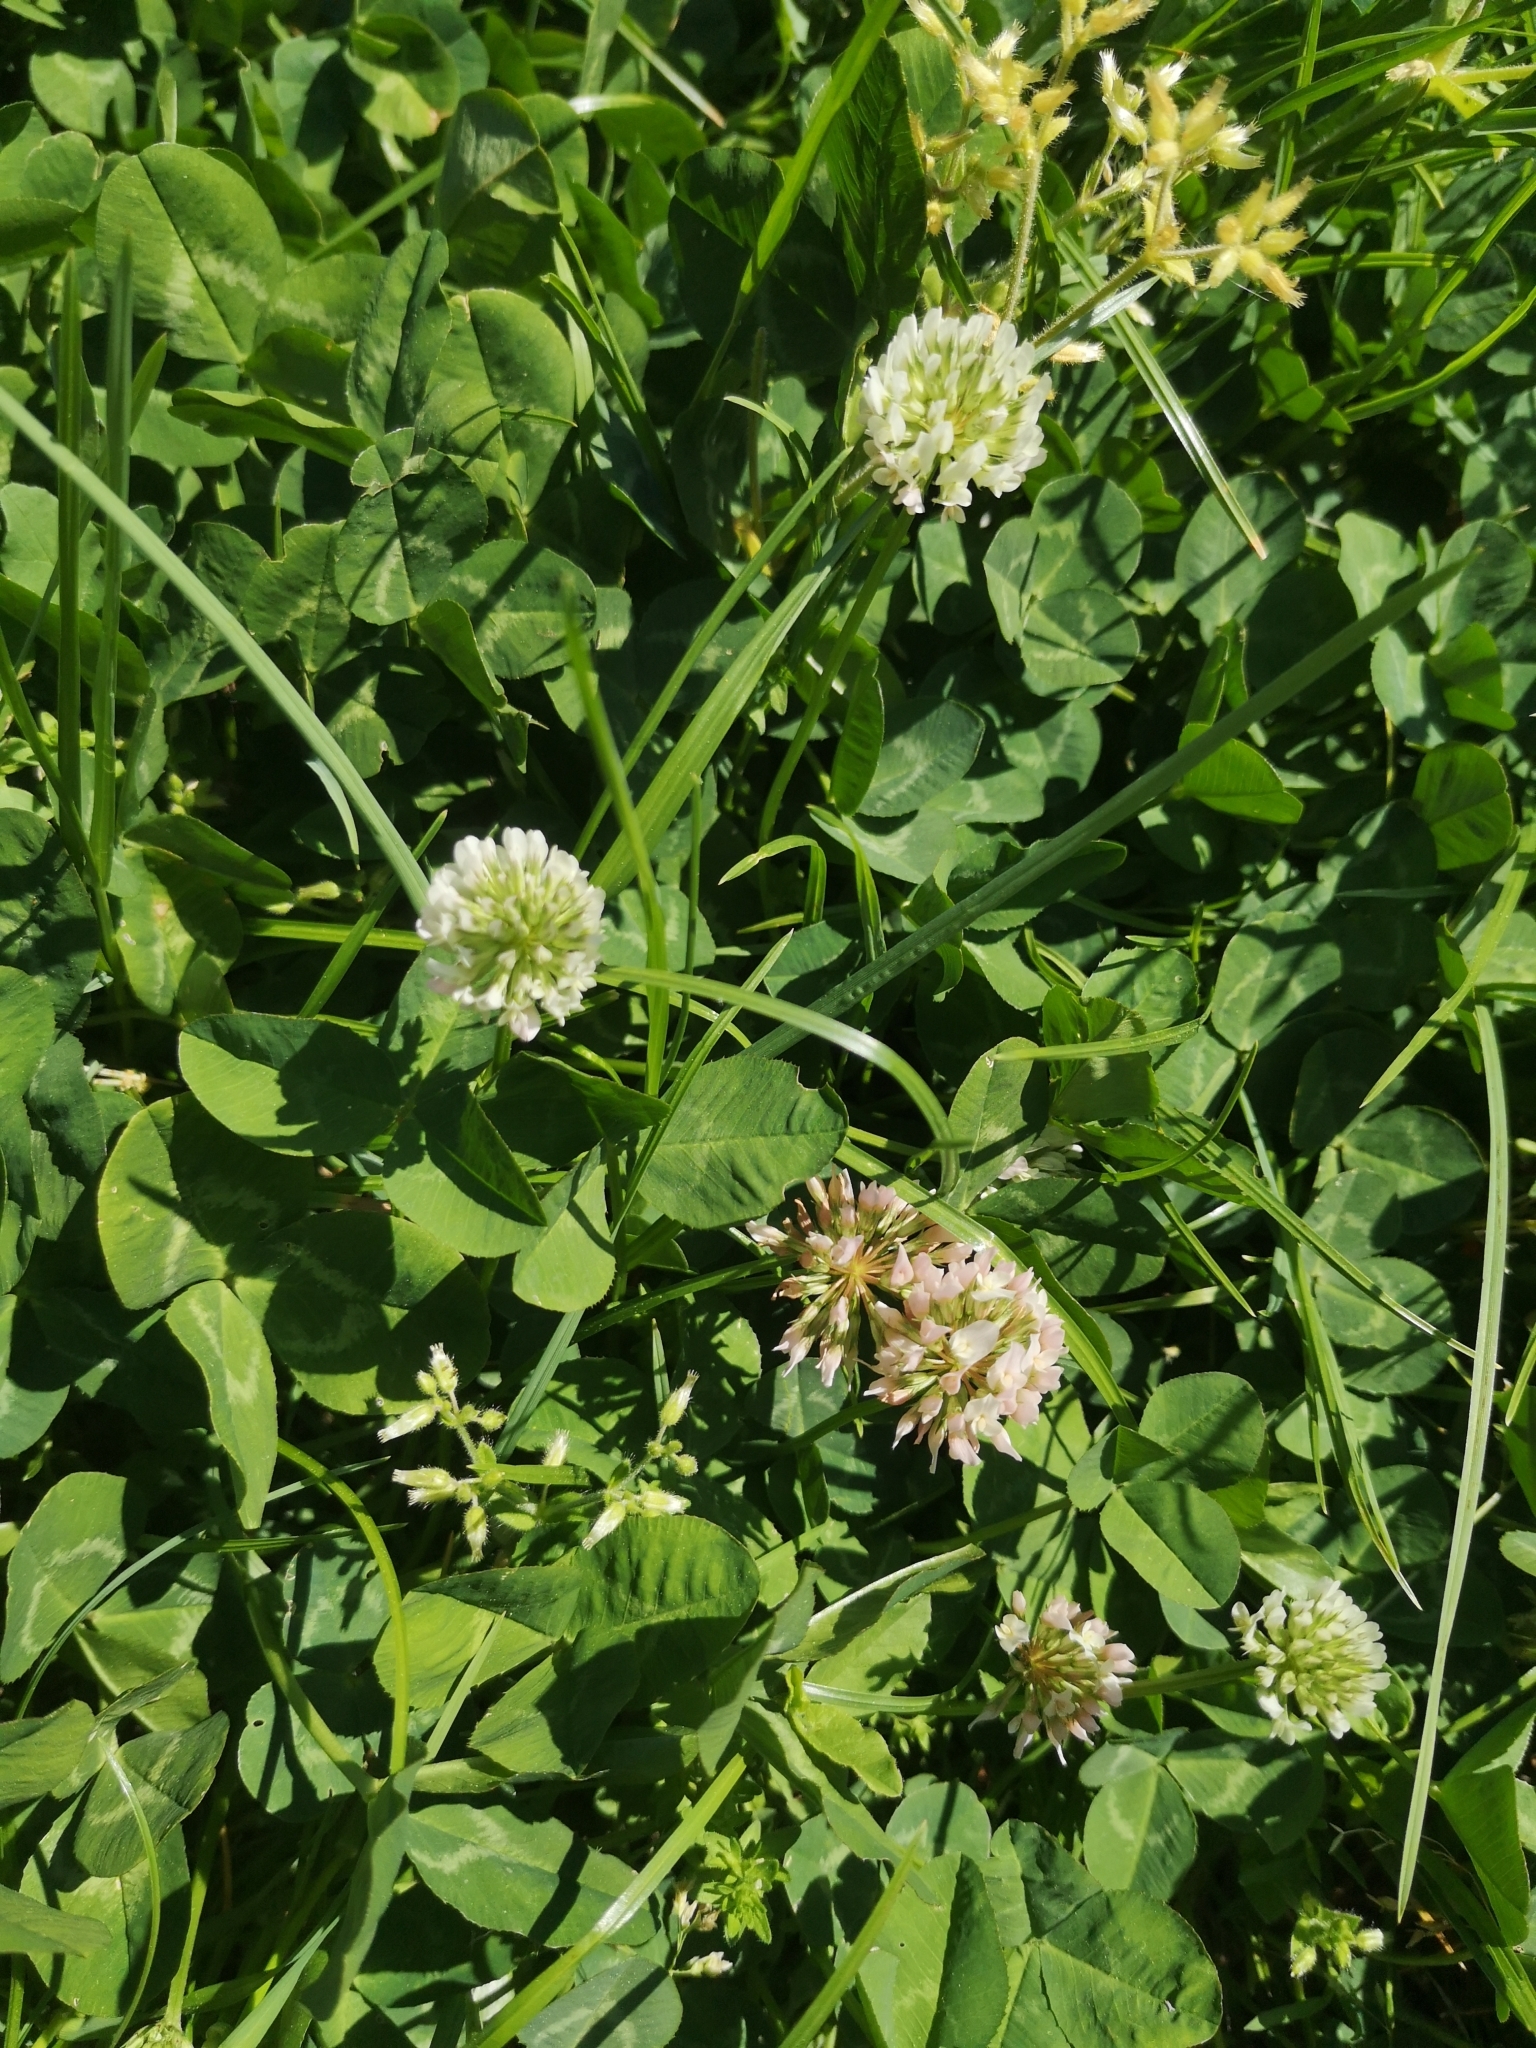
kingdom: Plantae
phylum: Tracheophyta
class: Magnoliopsida
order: Fabales
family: Fabaceae
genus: Trifolium
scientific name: Trifolium repens
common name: White clover
